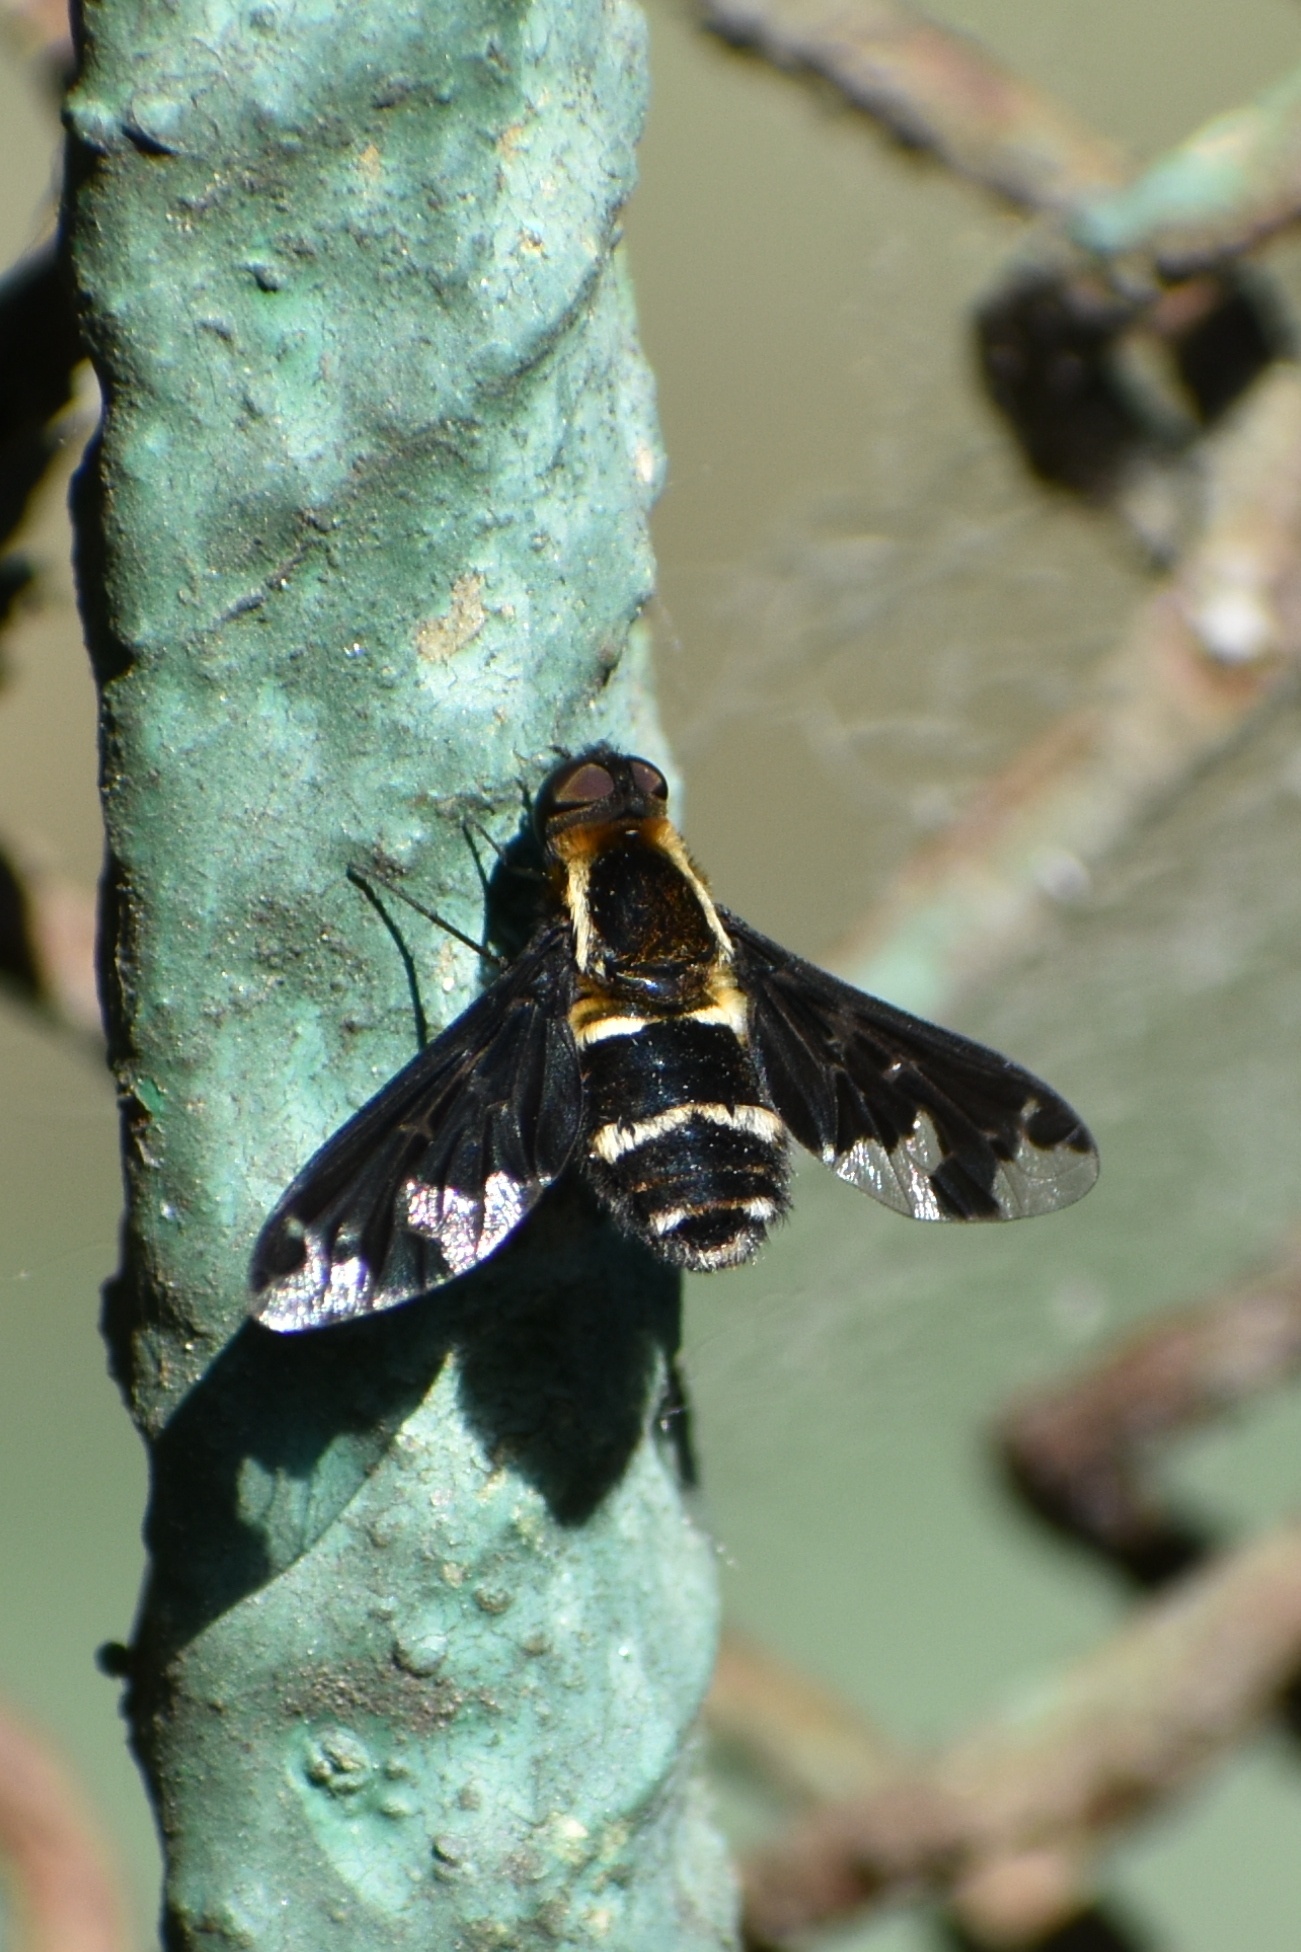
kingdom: Animalia
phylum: Arthropoda
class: Insecta
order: Diptera
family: Bombyliidae
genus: Hemipenthes
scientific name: Hemipenthes maura
